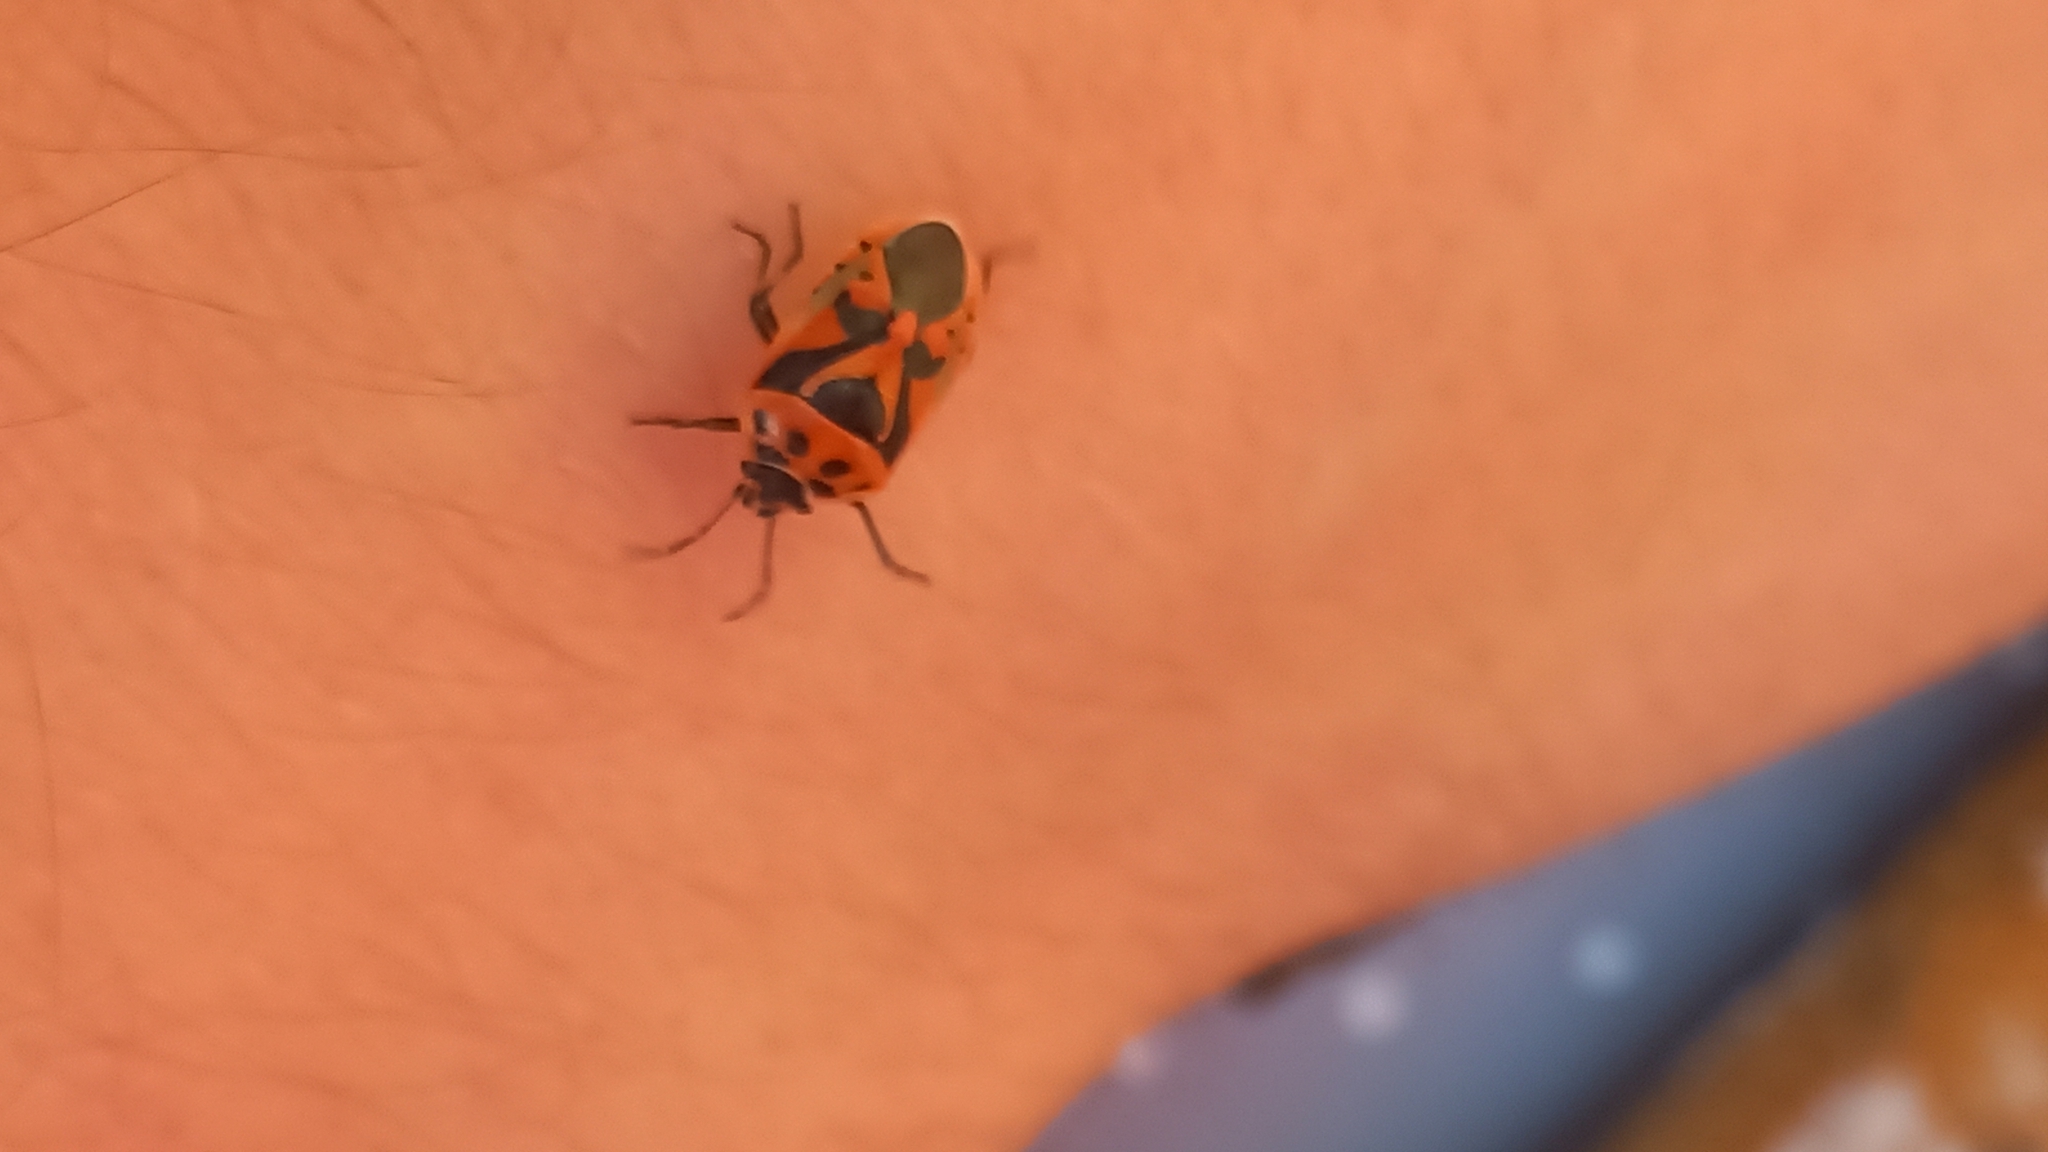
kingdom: Animalia
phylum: Arthropoda
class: Insecta
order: Hemiptera
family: Pentatomidae
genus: Eurydema
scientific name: Eurydema ornata
